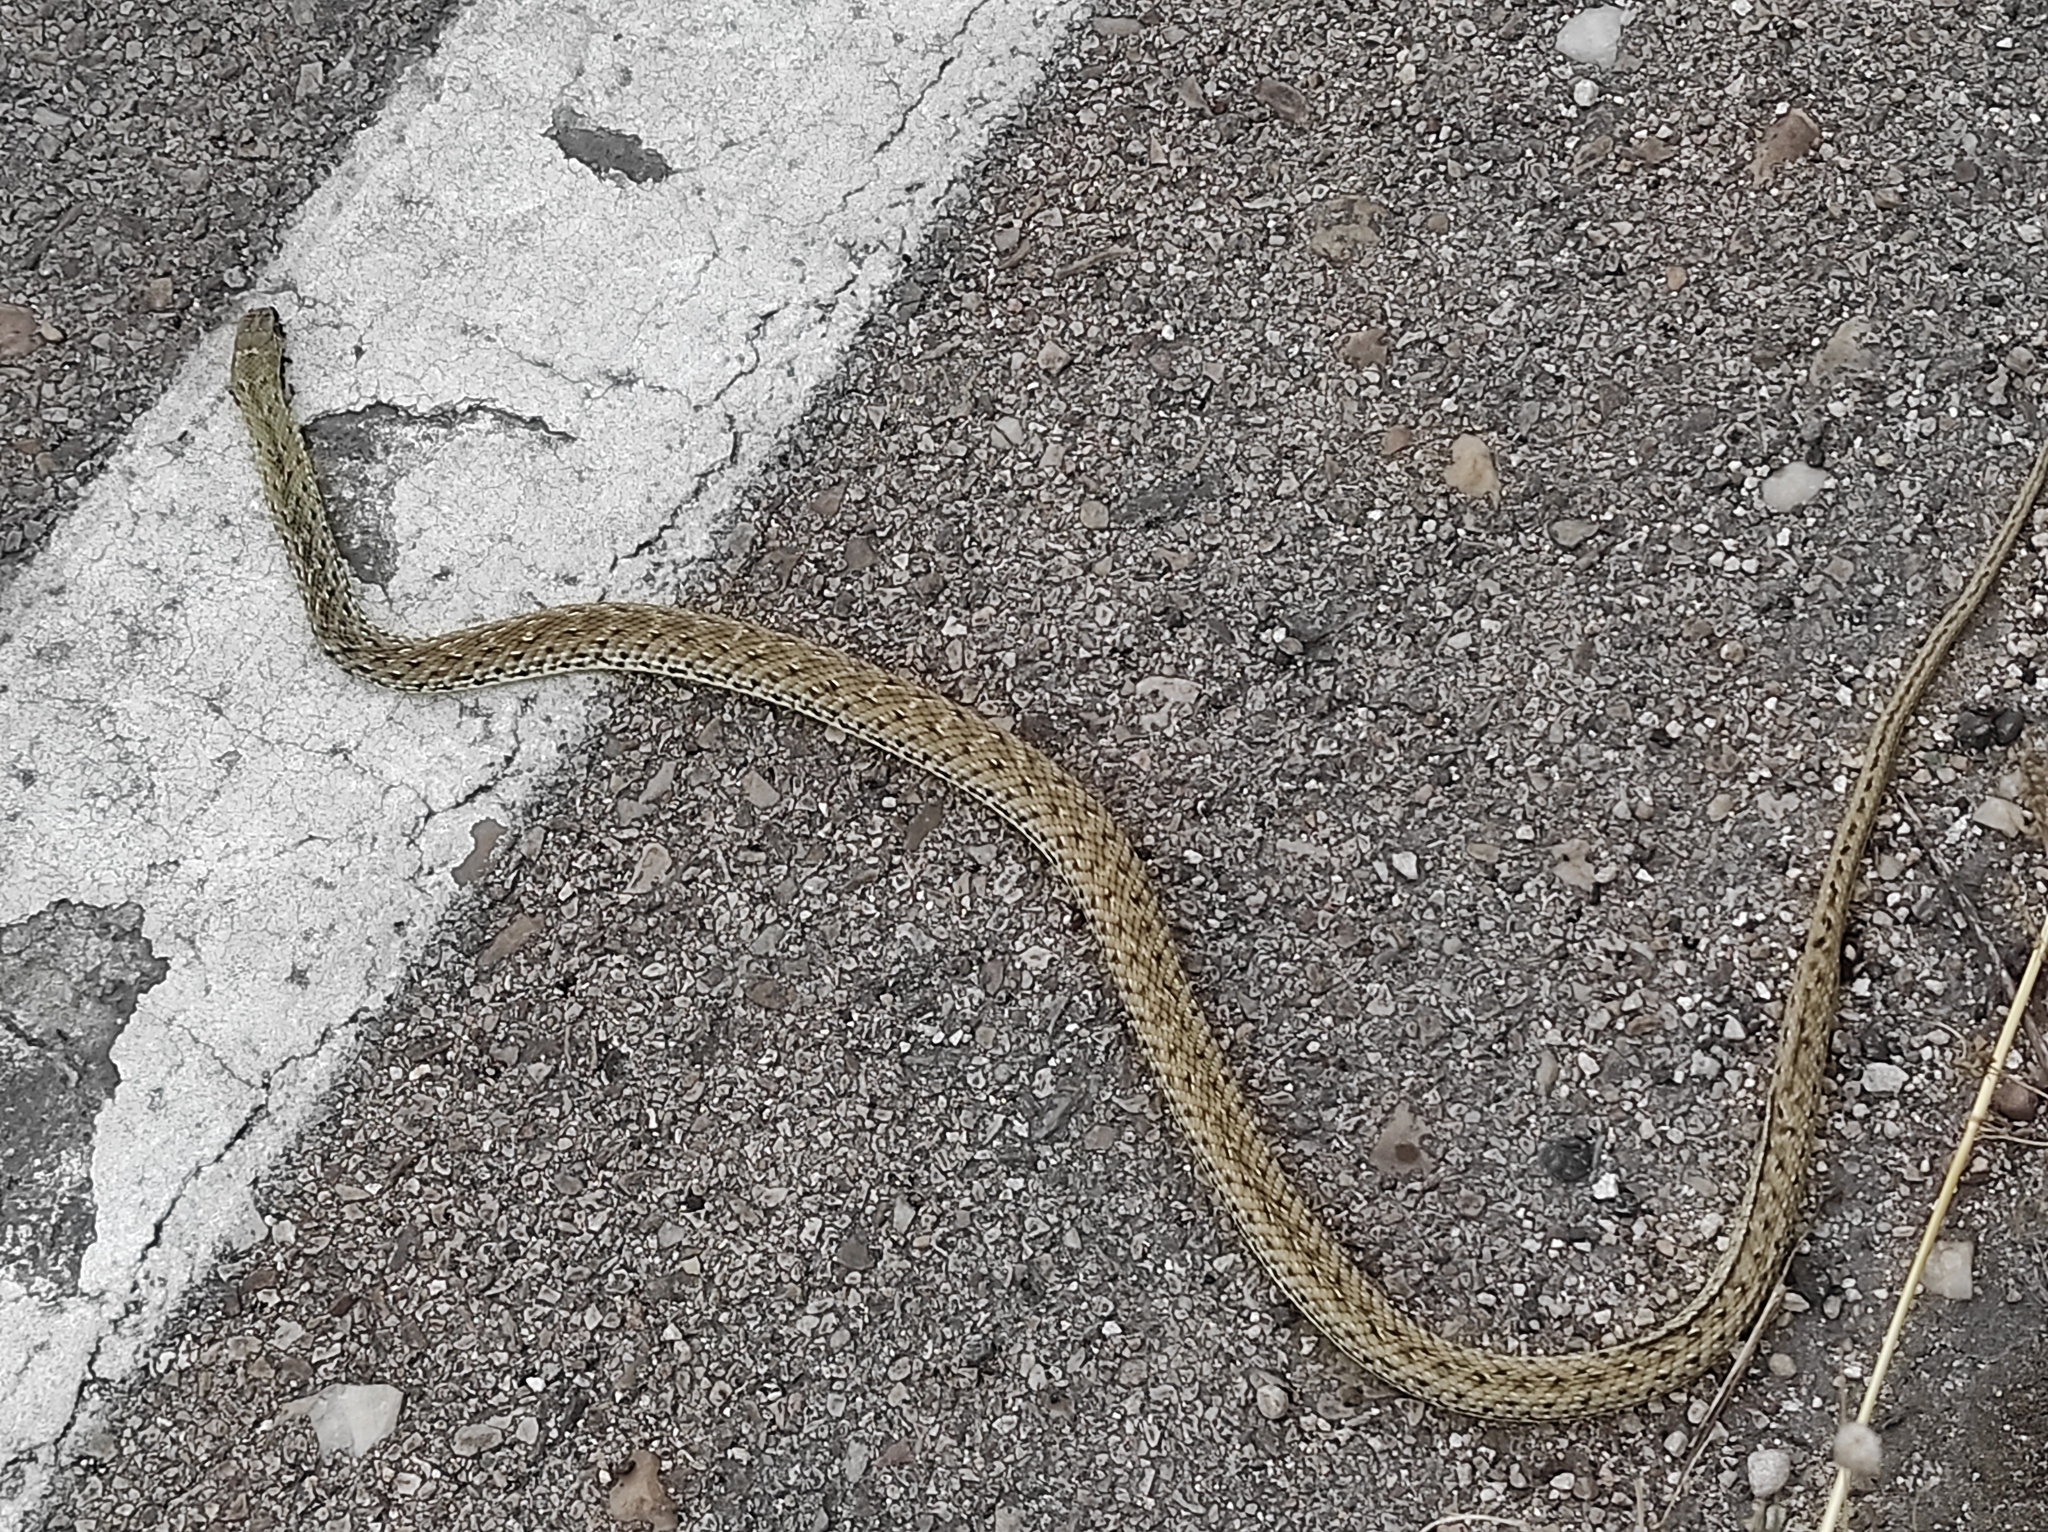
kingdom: Animalia
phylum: Chordata
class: Squamata
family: Psammophiidae
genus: Malpolon
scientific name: Malpolon monspessulanus
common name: Montpellier snake
